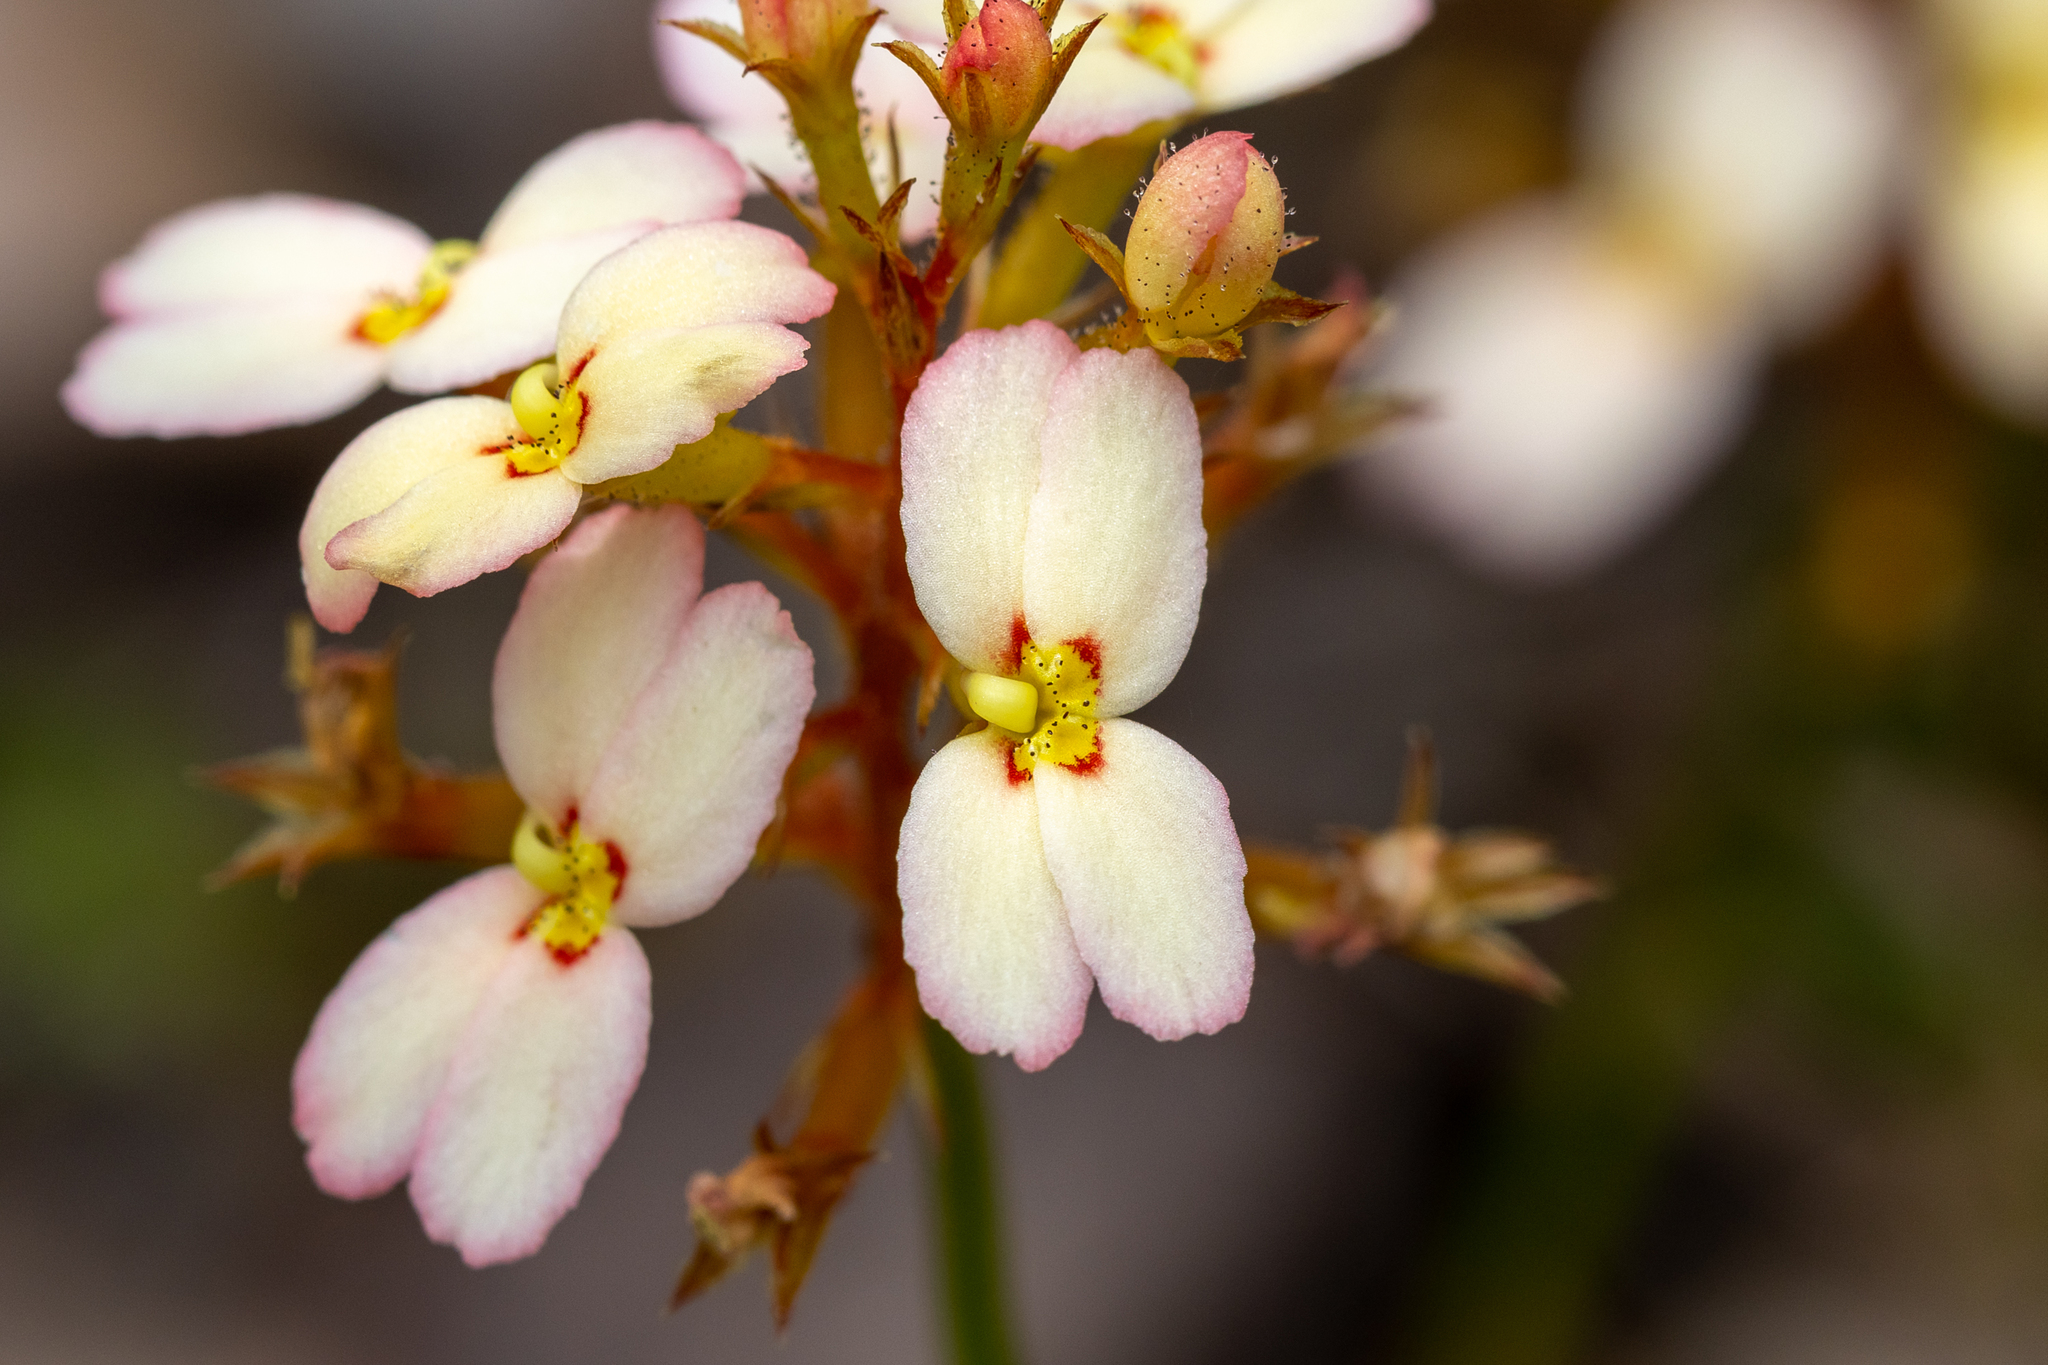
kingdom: Plantae
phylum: Tracheophyta
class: Magnoliopsida
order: Asterales
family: Stylidiaceae
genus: Stylidium
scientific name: Stylidium junceum
